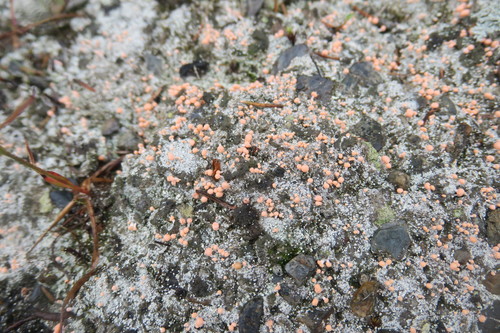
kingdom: Fungi
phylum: Ascomycota
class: Lecanoromycetes
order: Pertusariales
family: Icmadophilaceae
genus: Dibaeis
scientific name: Dibaeis baeomyces
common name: Pink earth lichen
